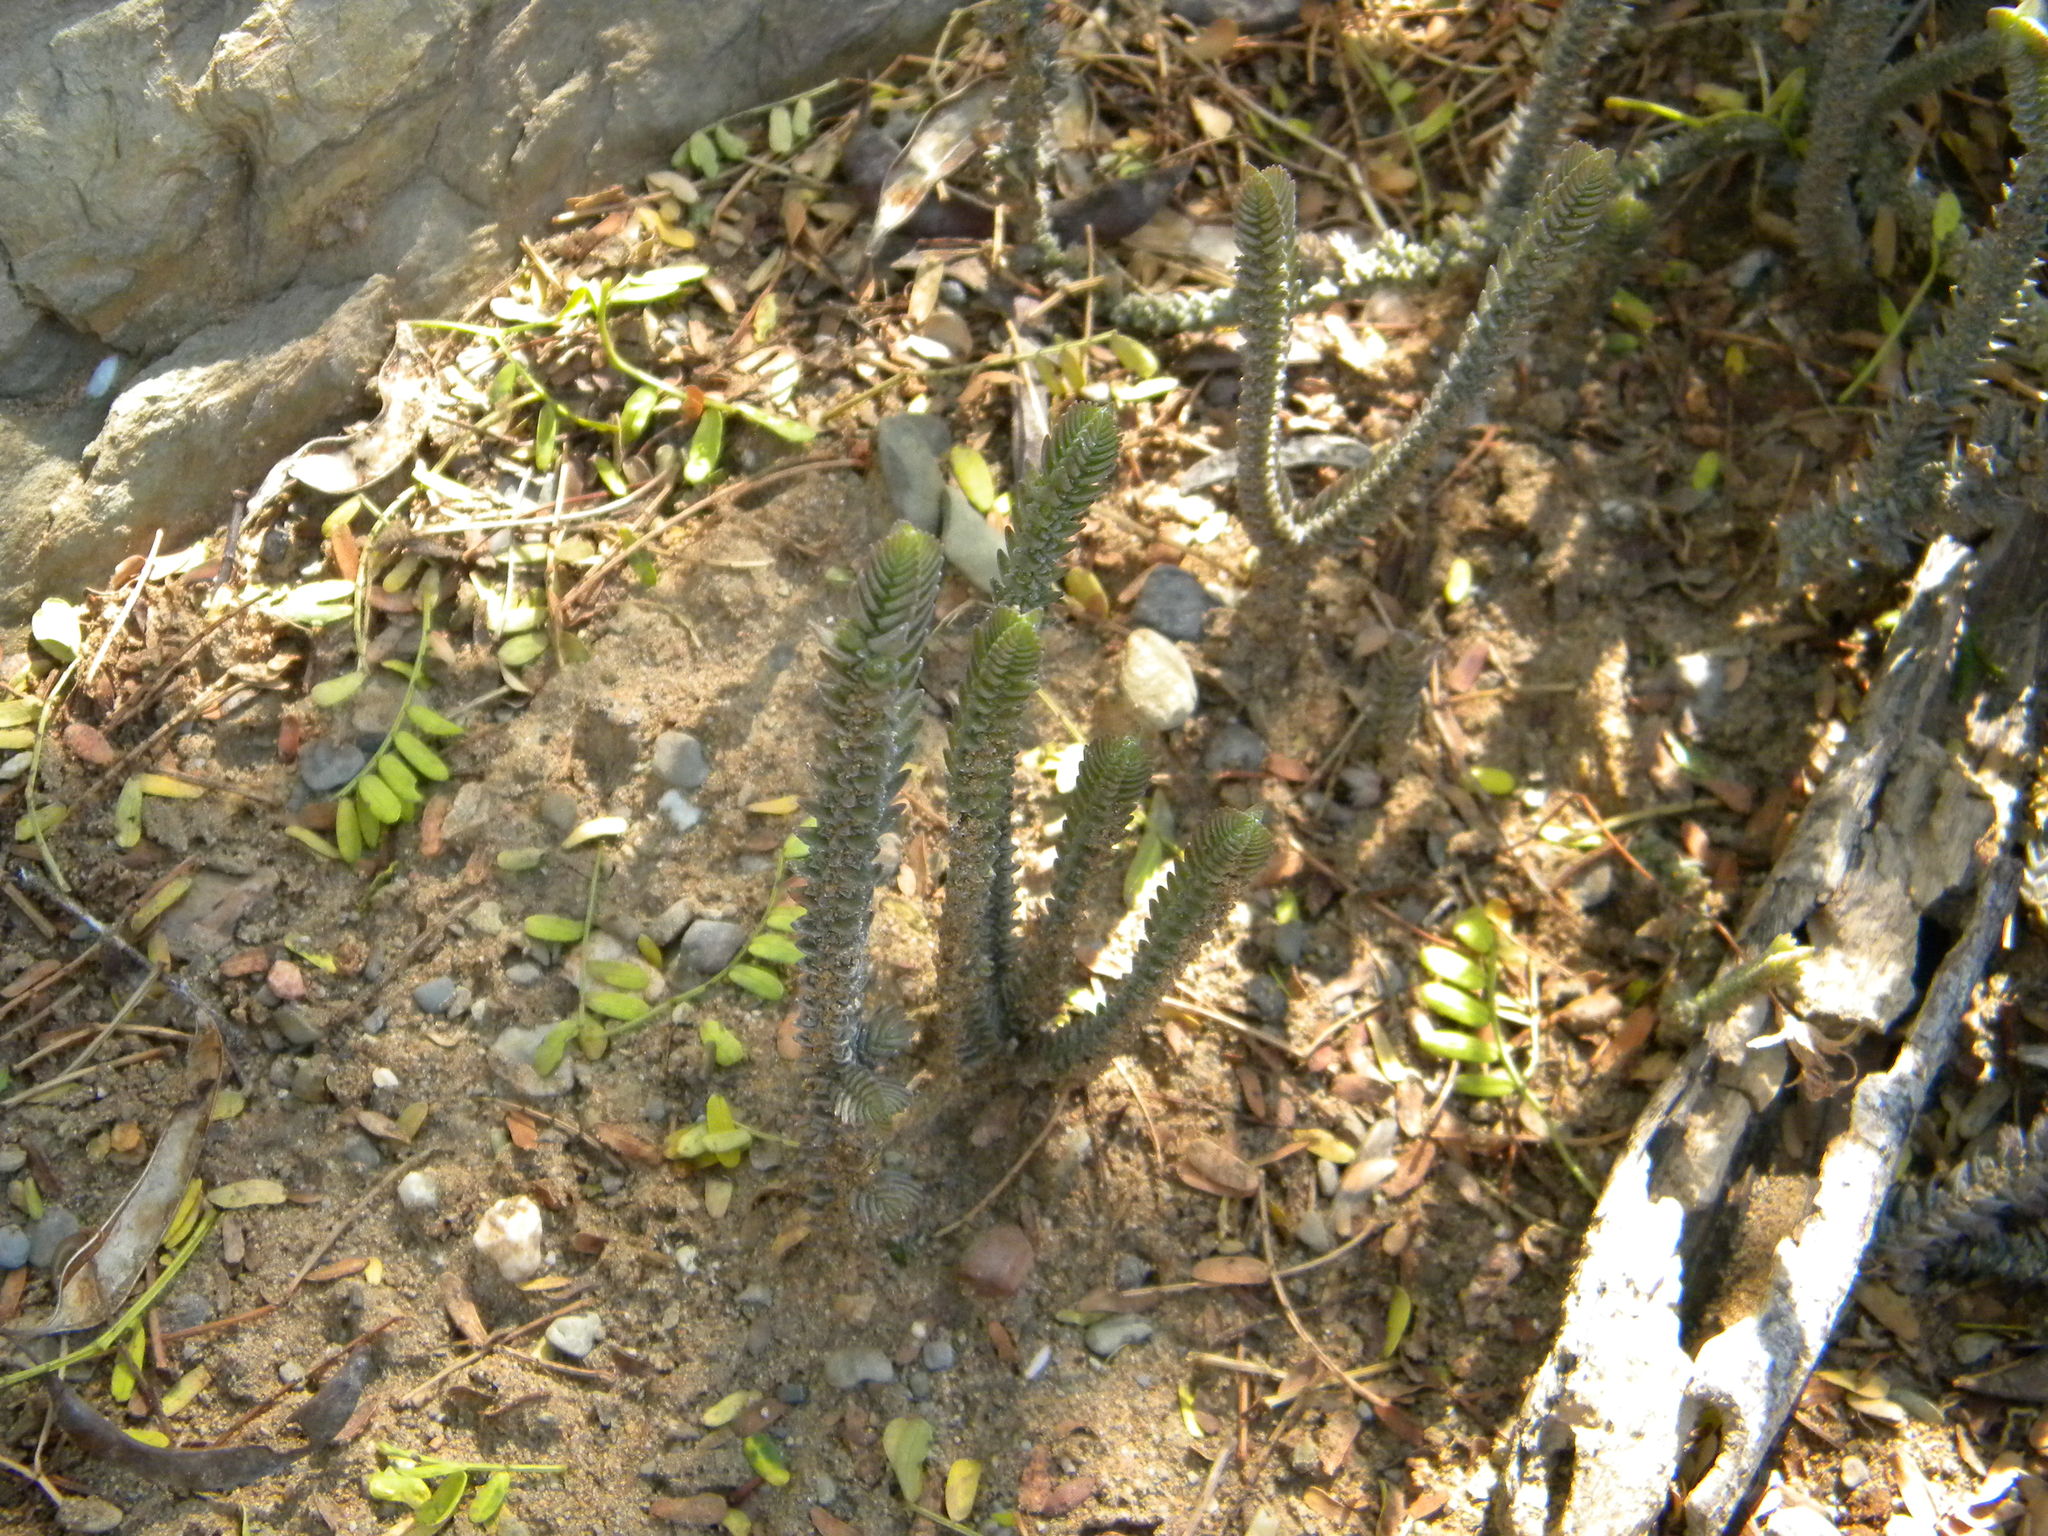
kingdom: Plantae
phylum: Tracheophyta
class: Magnoliopsida
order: Saxifragales
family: Crassulaceae
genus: Crassula
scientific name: Crassula muscosa
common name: Toy-cypress
